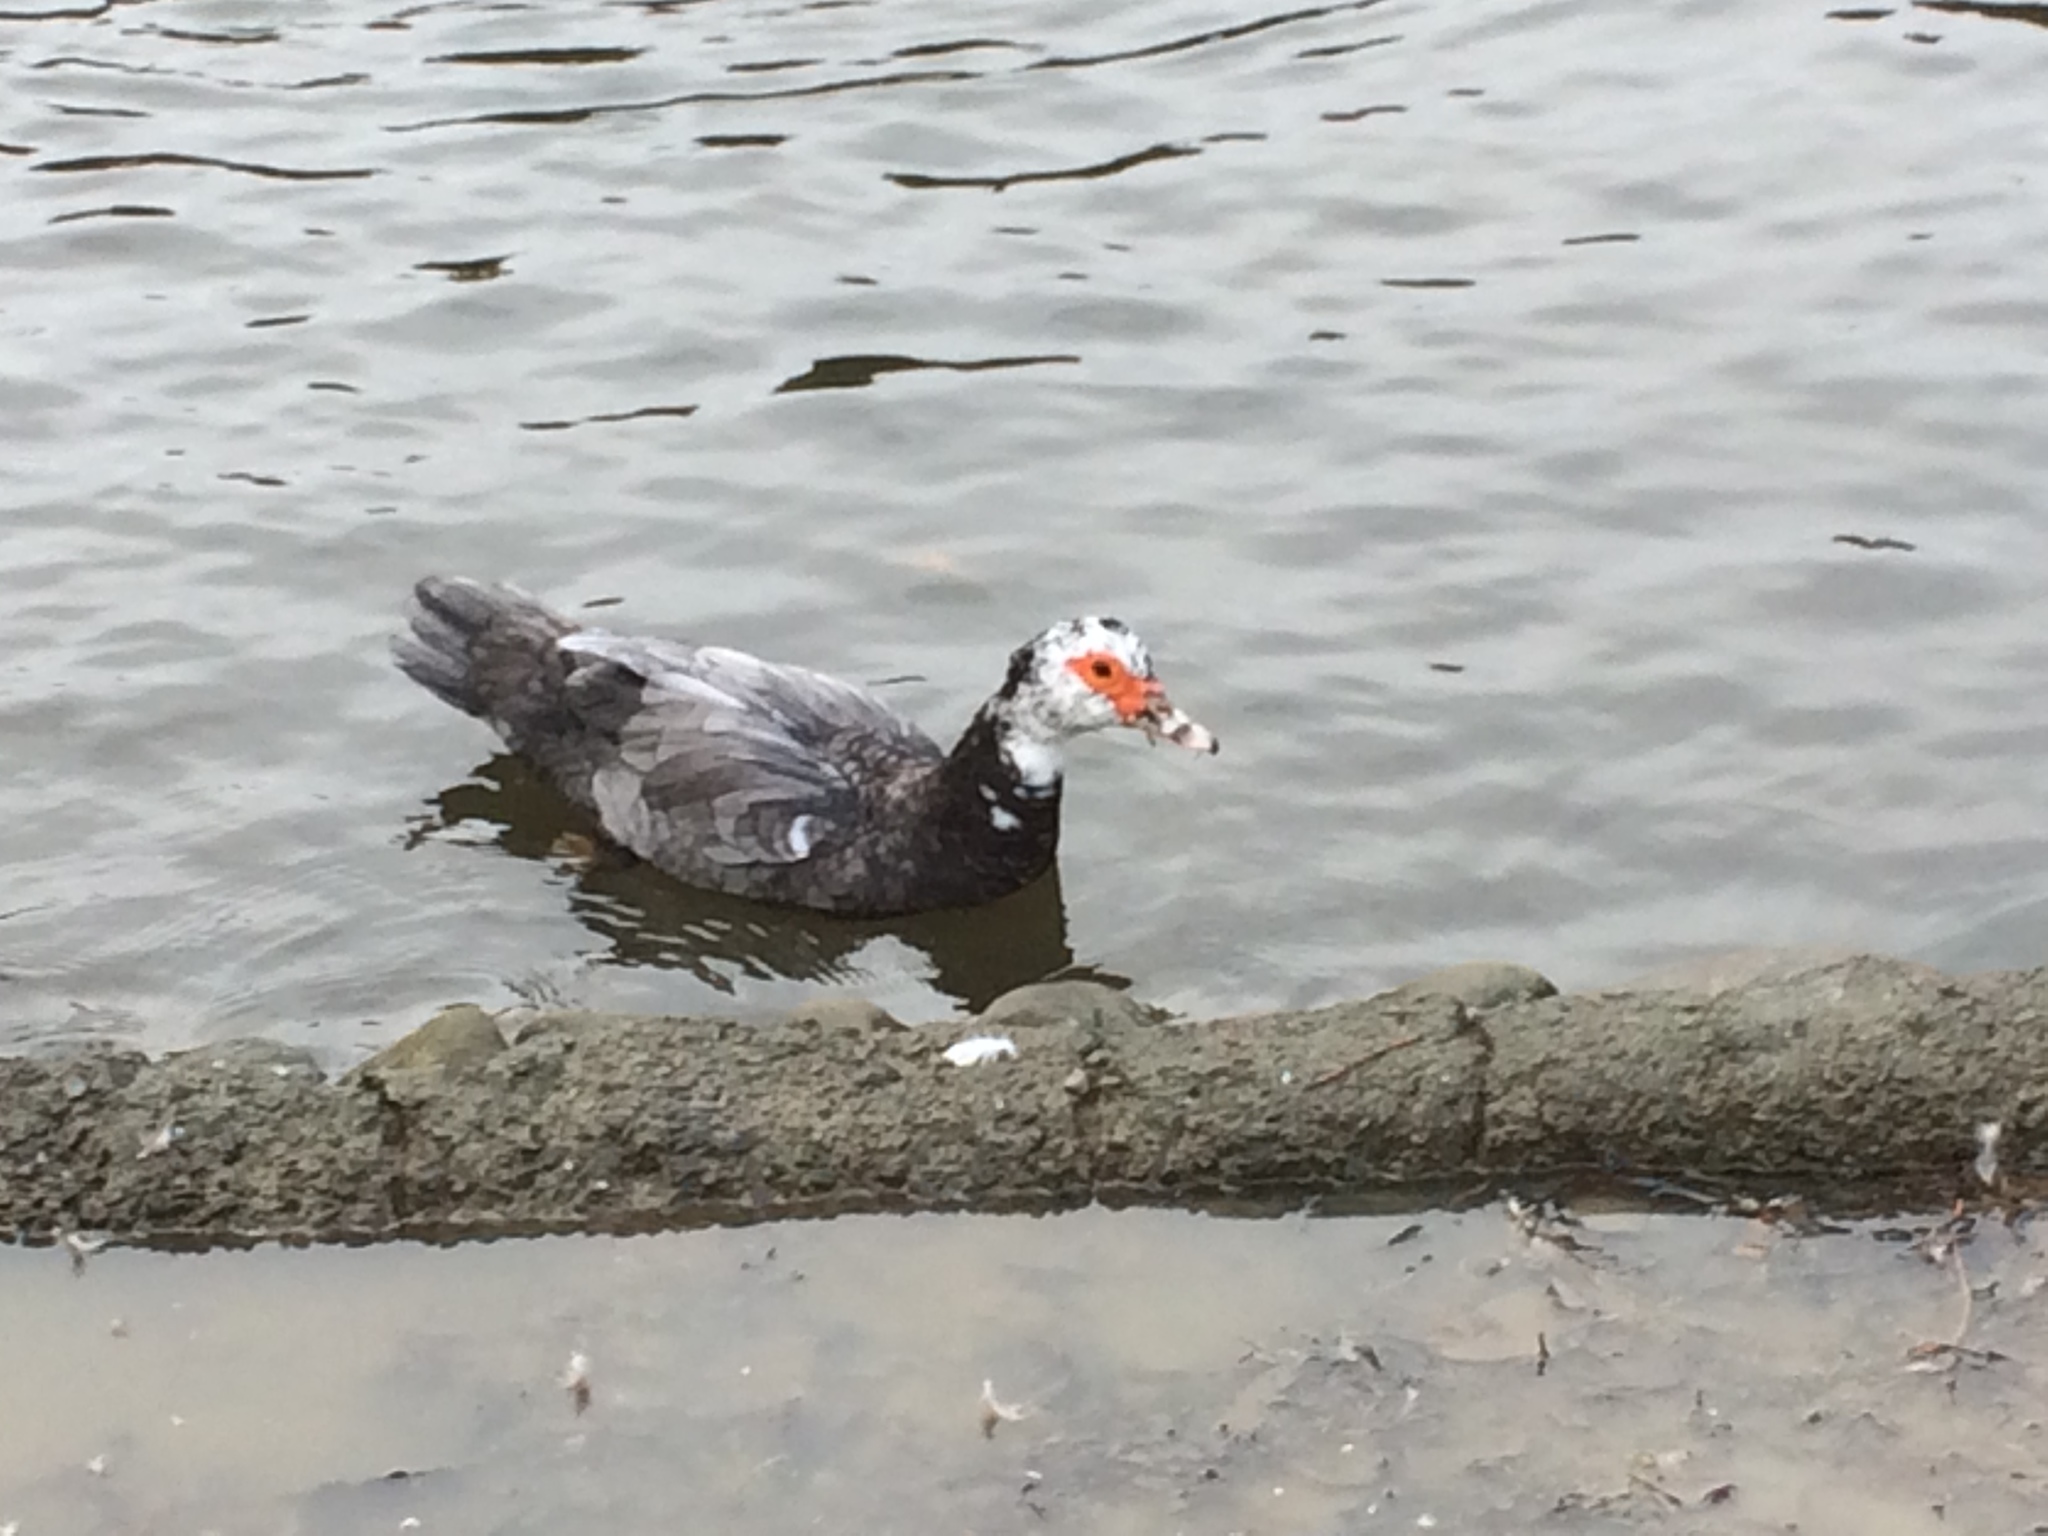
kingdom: Animalia
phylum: Chordata
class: Aves
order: Anseriformes
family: Anatidae
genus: Cairina
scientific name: Cairina moschata
